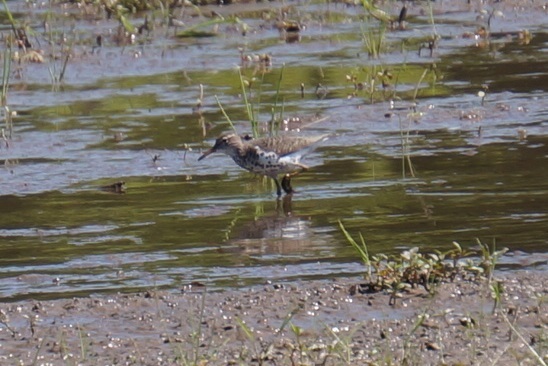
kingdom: Animalia
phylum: Chordata
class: Aves
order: Charadriiformes
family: Scolopacidae
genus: Actitis
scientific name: Actitis macularius
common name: Spotted sandpiper
